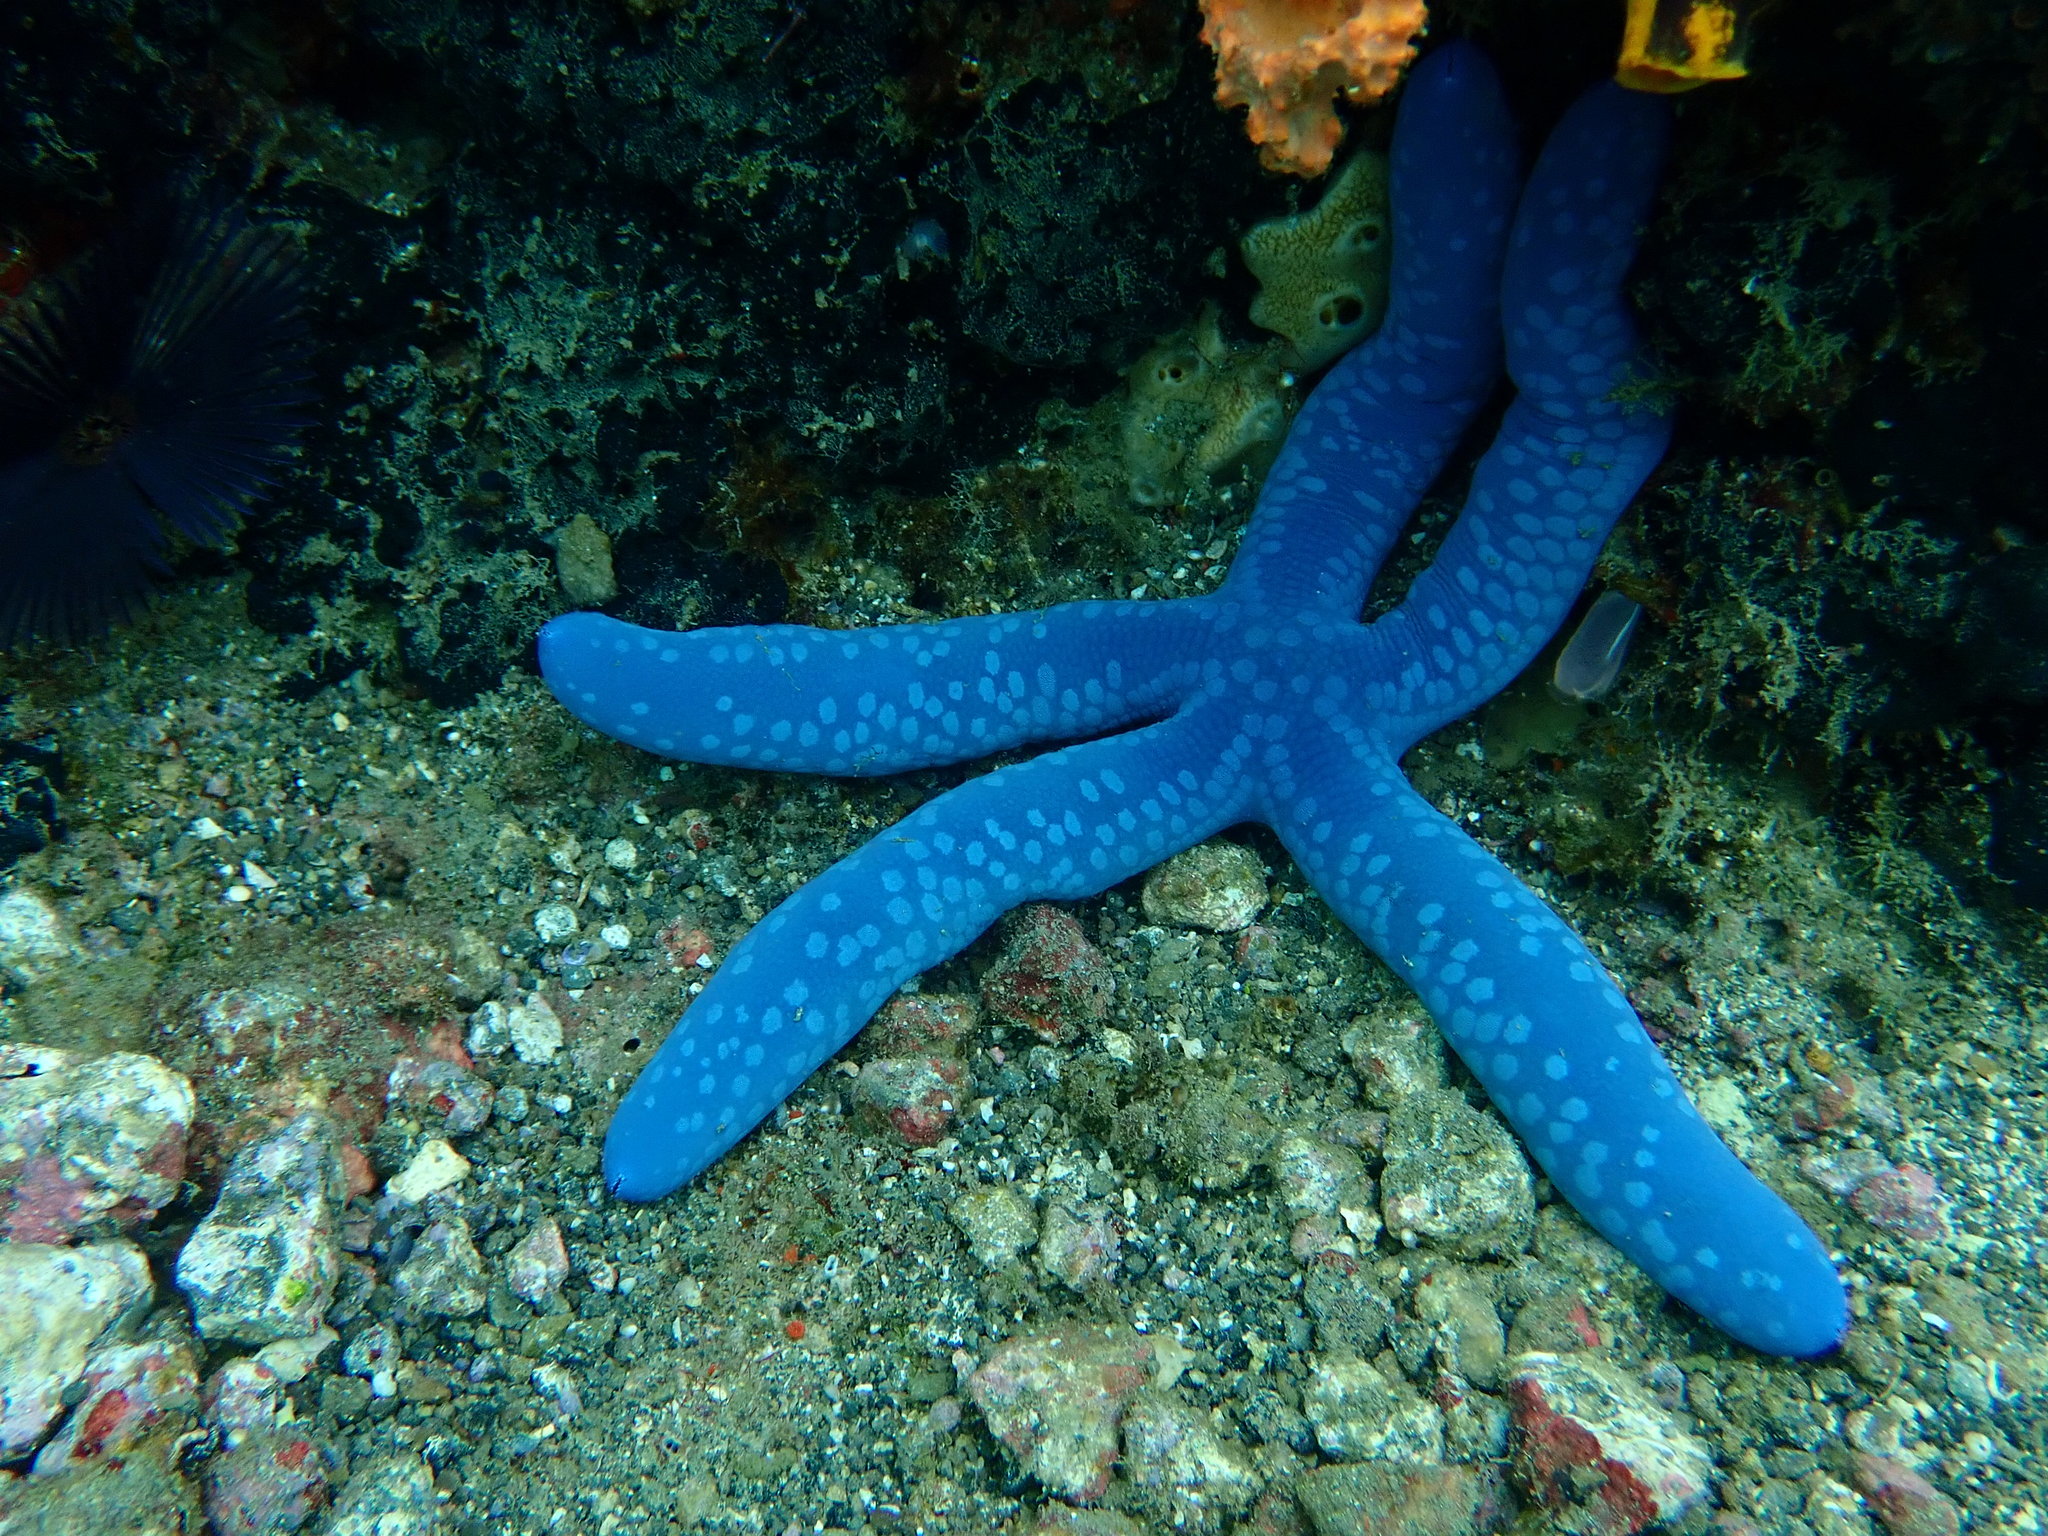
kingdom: Animalia
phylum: Echinodermata
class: Asteroidea
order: Valvatida
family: Ophidiasteridae
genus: Linckia
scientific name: Linckia laevigata
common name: Azure sea star
